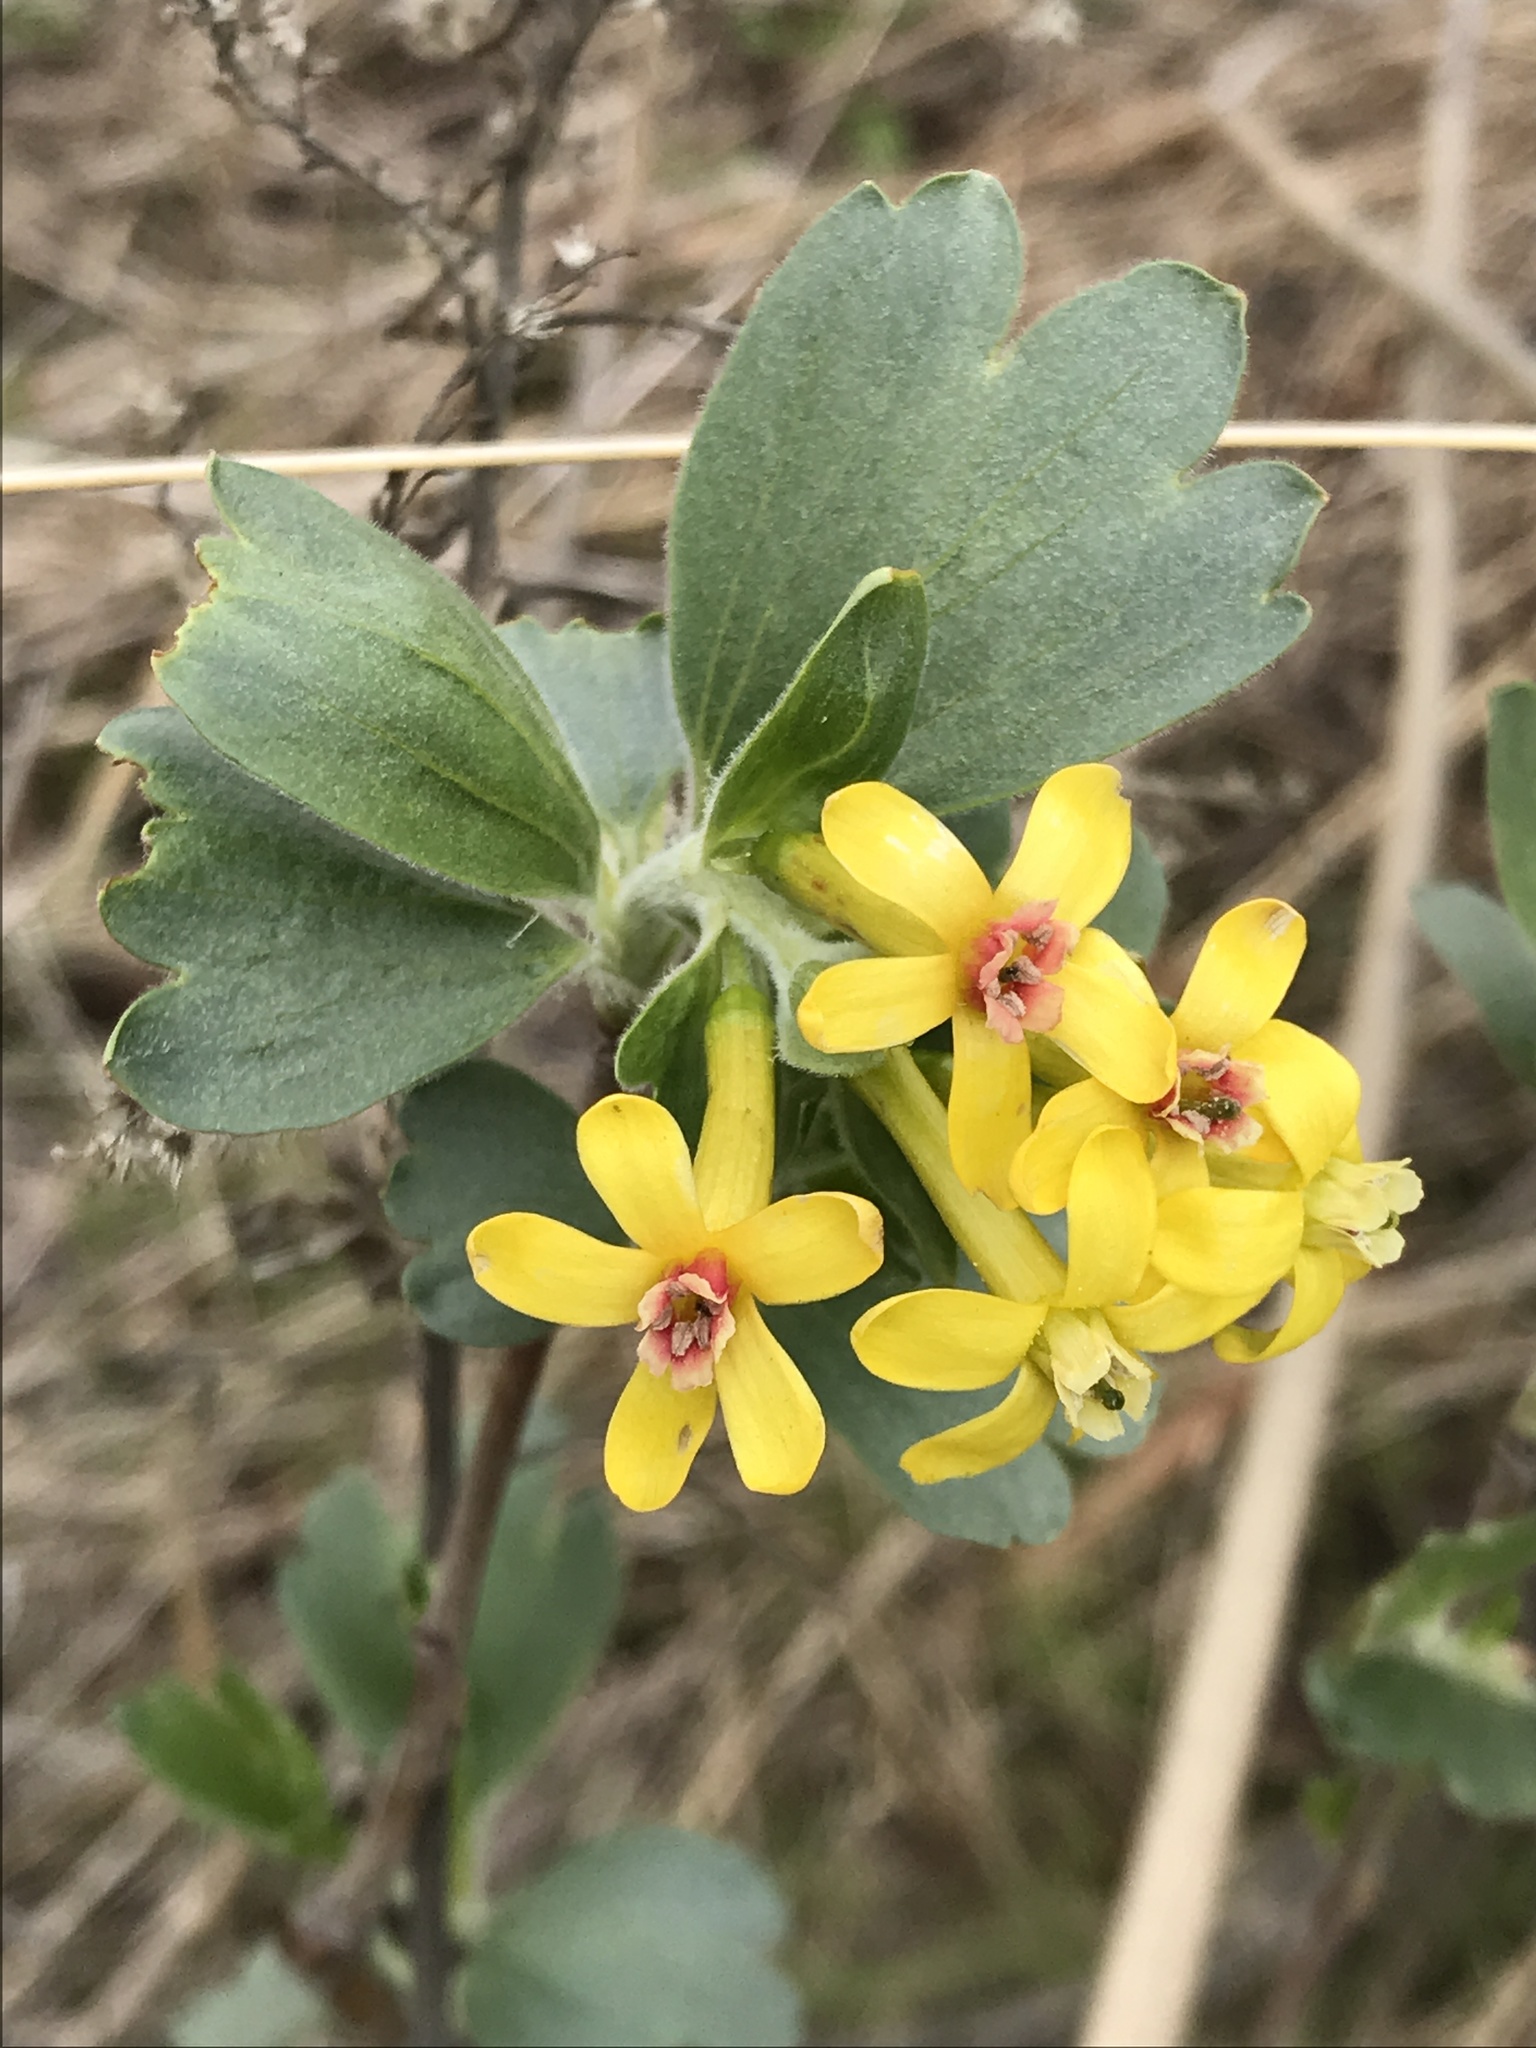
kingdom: Plantae
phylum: Tracheophyta
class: Magnoliopsida
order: Saxifragales
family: Grossulariaceae
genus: Ribes
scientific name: Ribes aureum
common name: Golden currant
